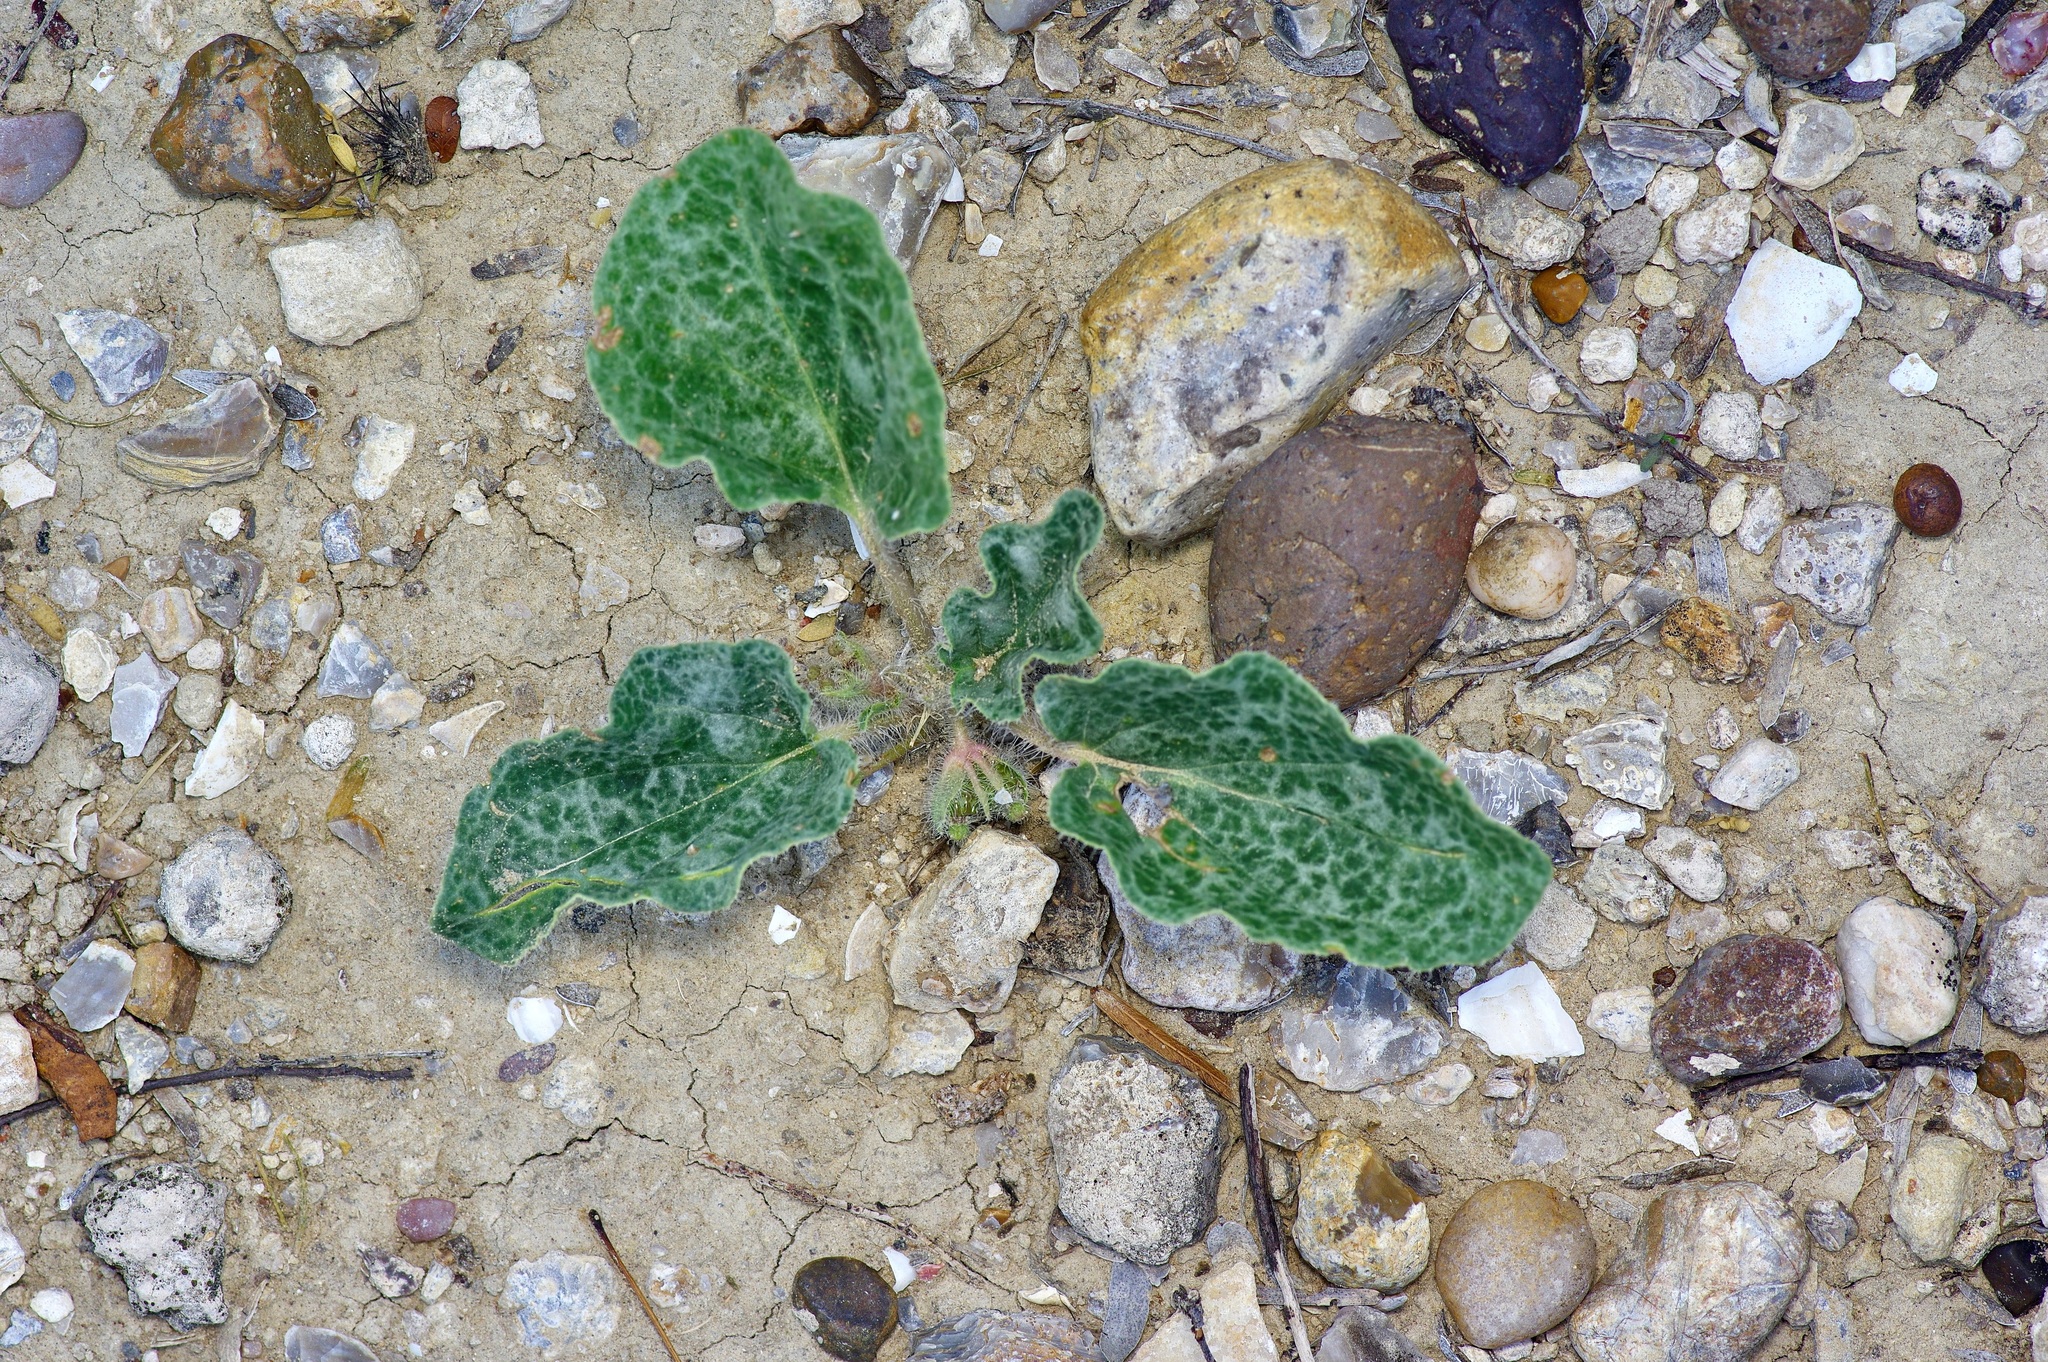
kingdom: Plantae
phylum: Tracheophyta
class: Magnoliopsida
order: Caryophyllales
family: Nyctaginaceae
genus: Nyctaginia
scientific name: Nyctaginia capitata
